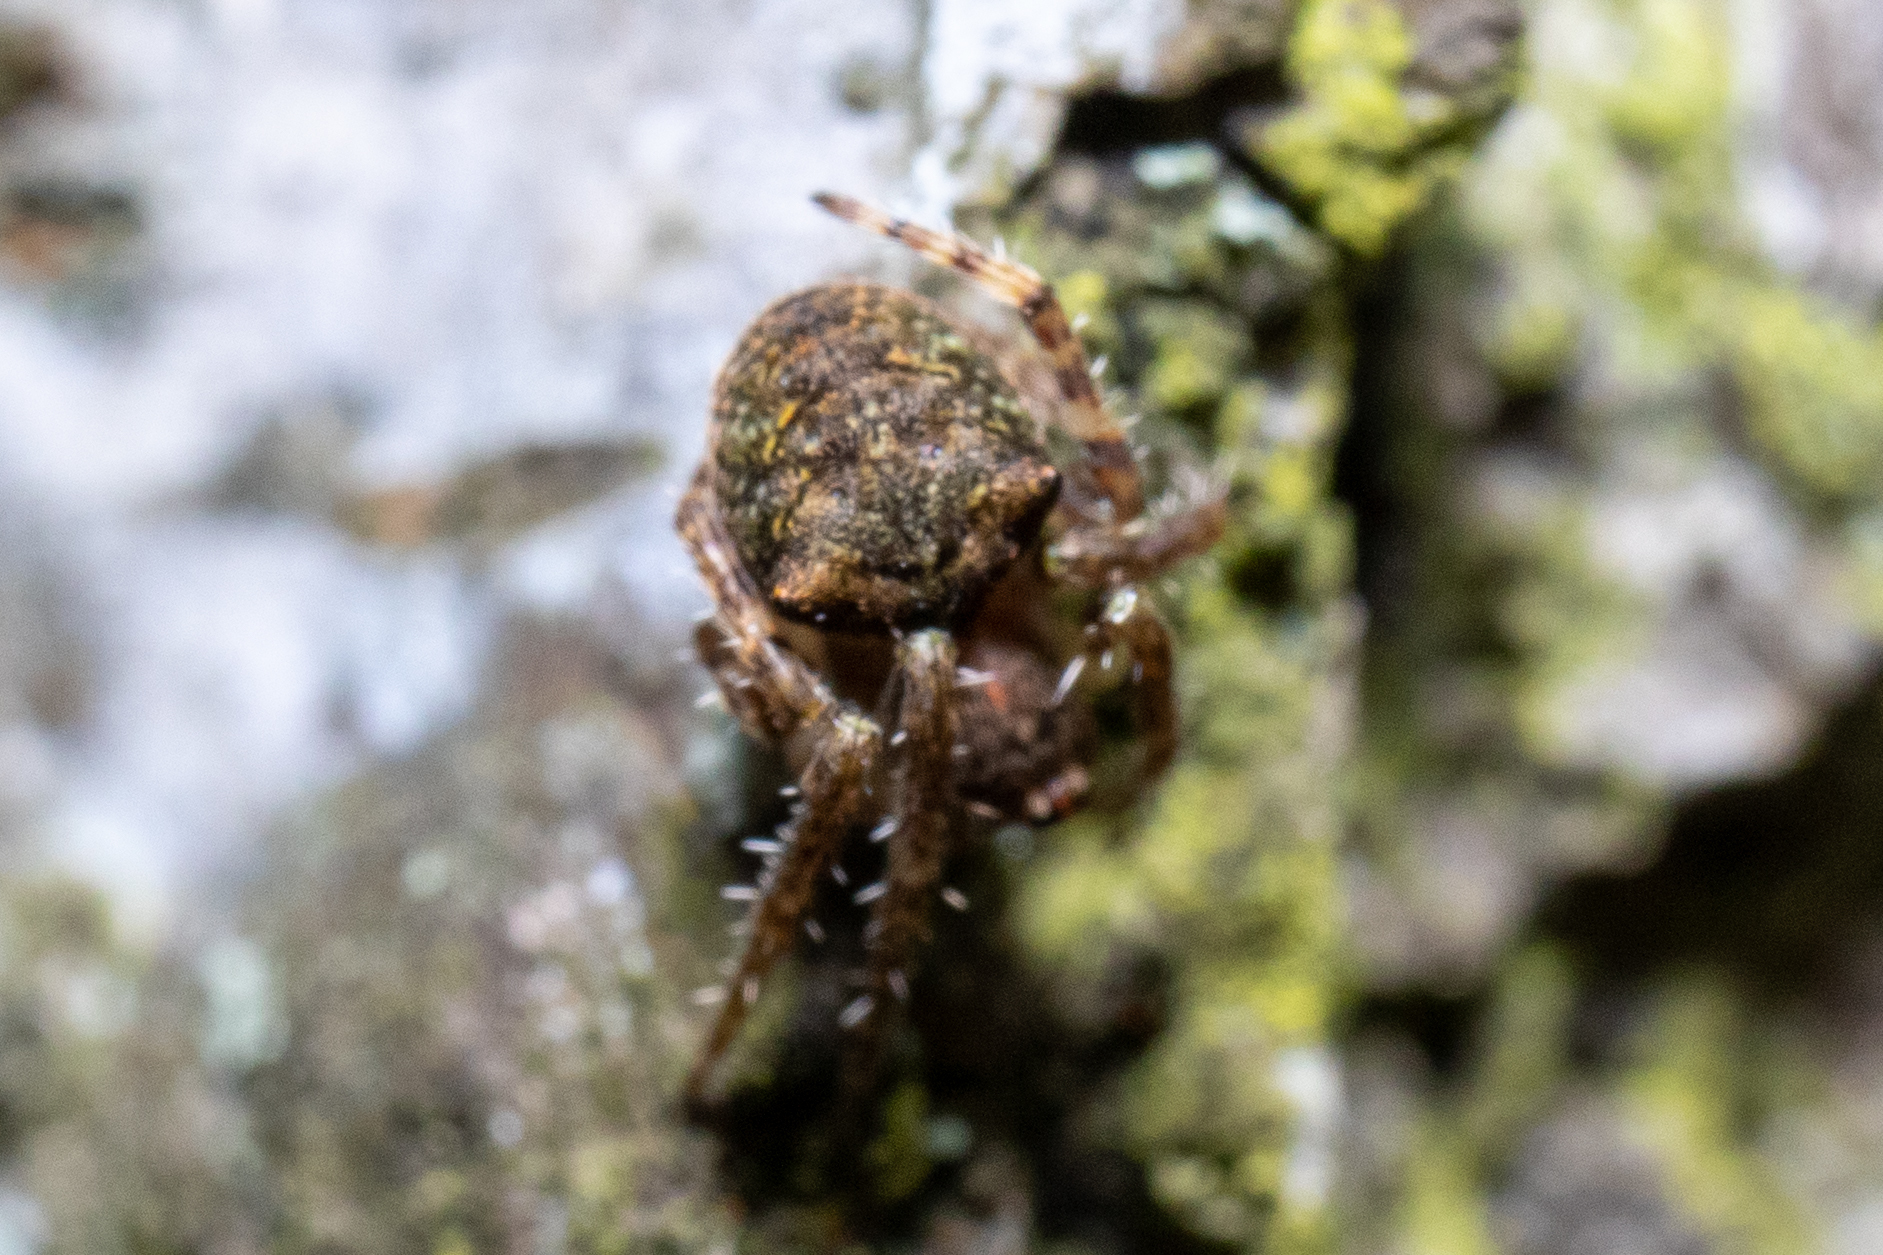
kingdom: Animalia
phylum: Arthropoda
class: Arachnida
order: Araneae
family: Araneidae
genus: Gibbaranea
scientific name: Gibbaranea gibbosa
